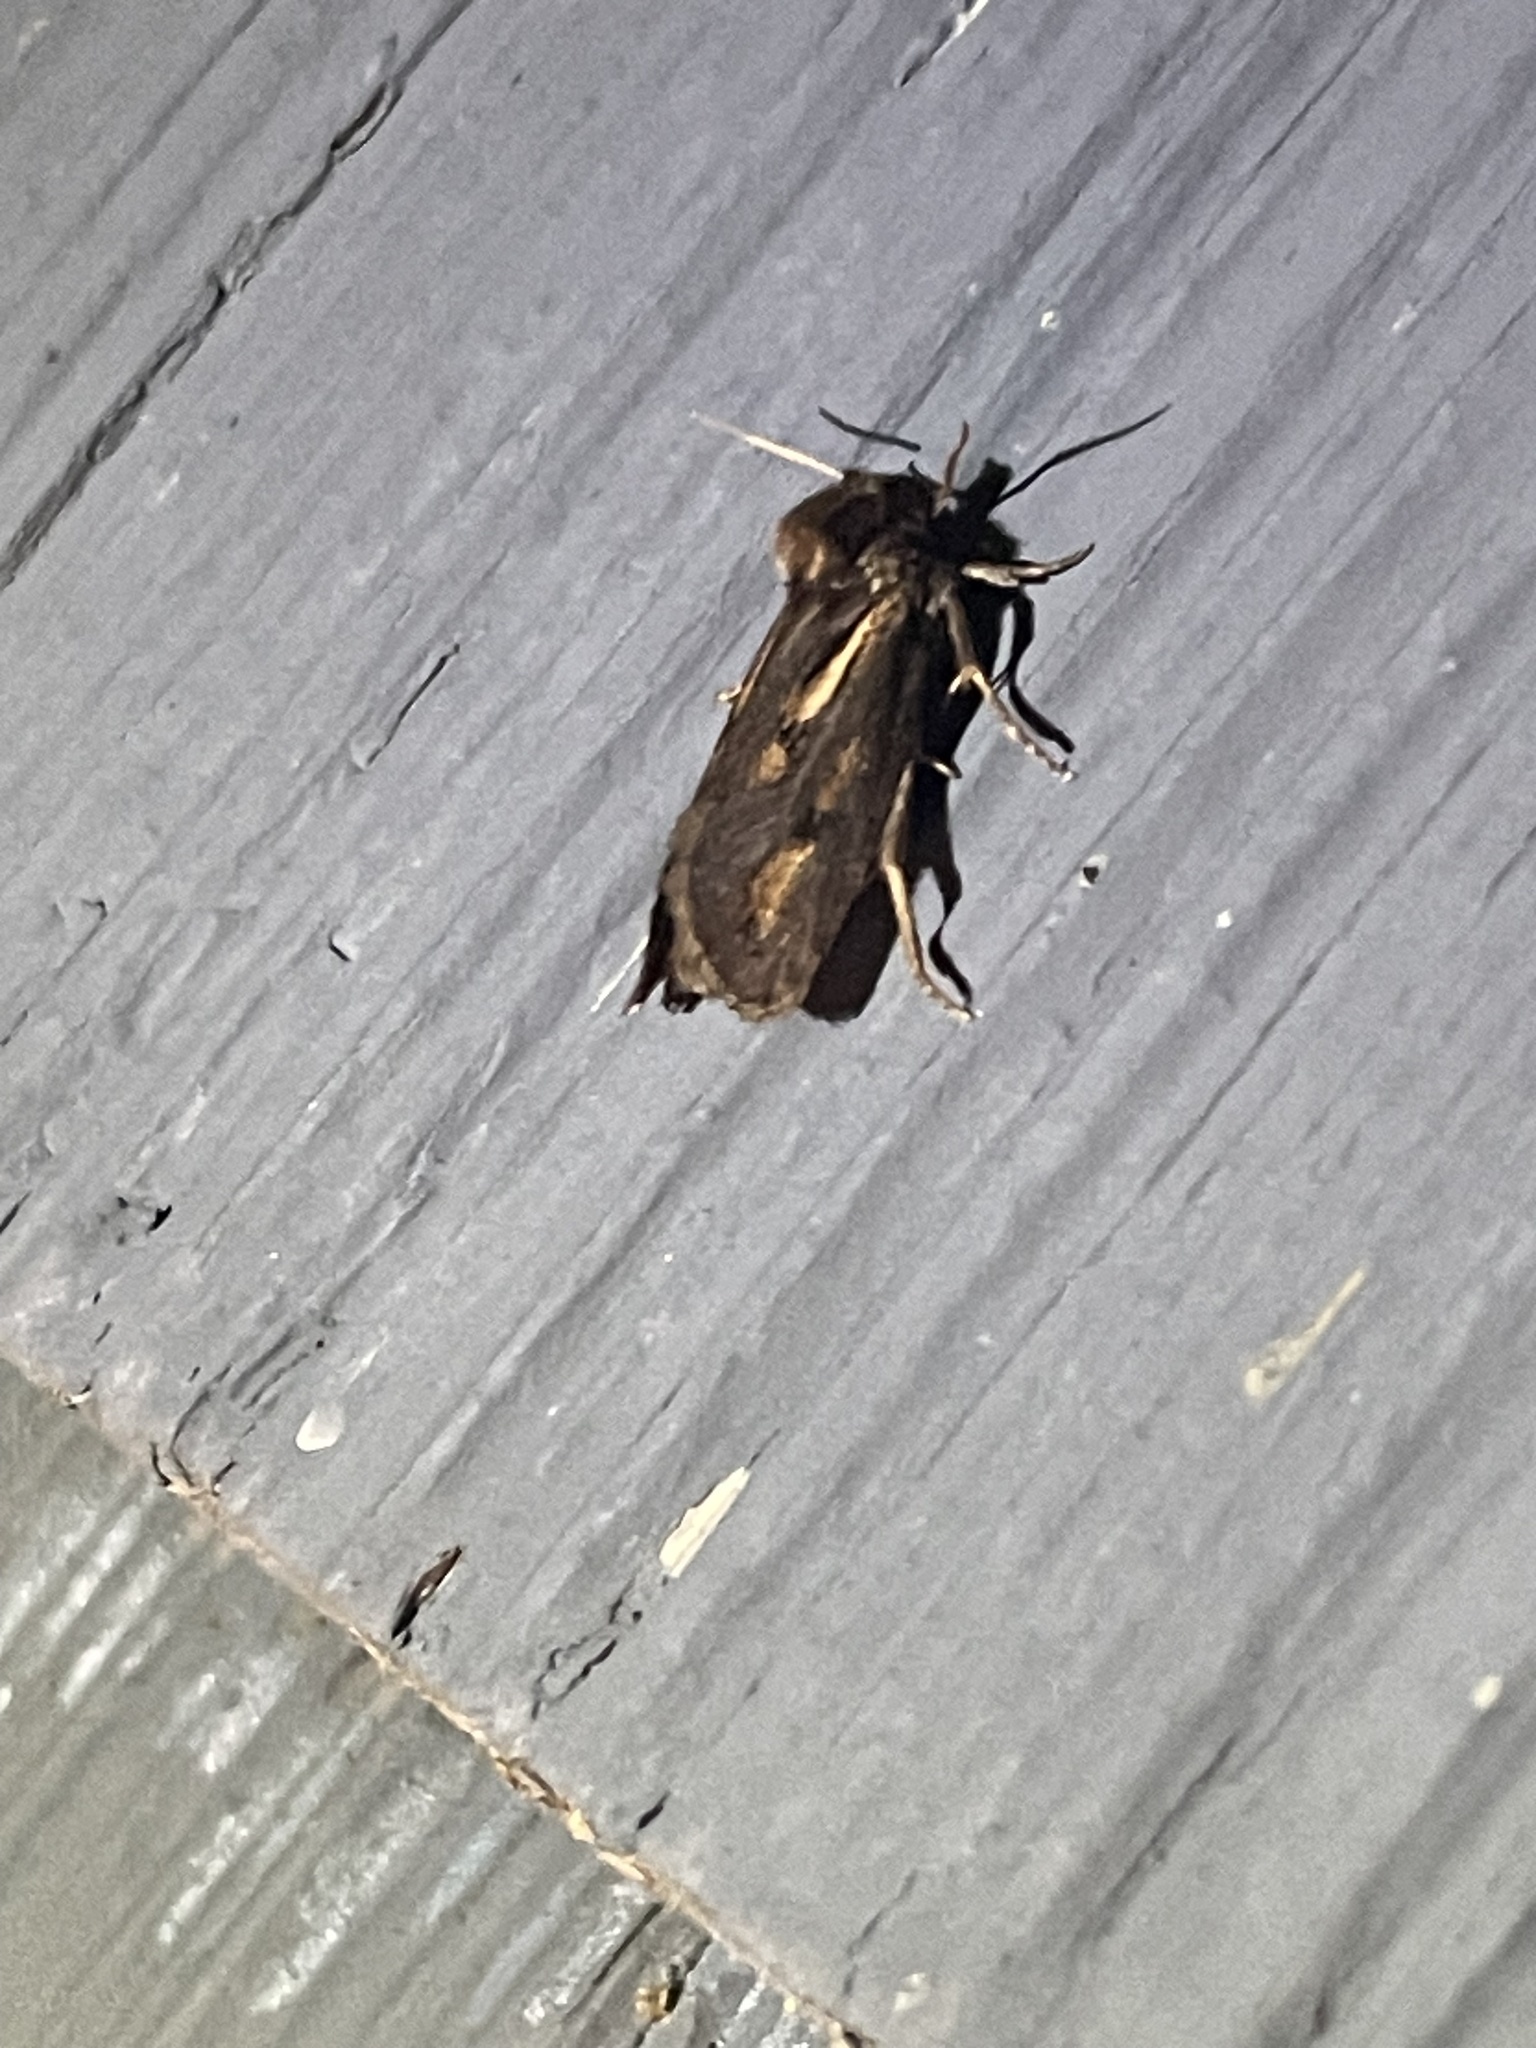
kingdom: Animalia
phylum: Arthropoda
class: Insecta
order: Lepidoptera
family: Tineidae
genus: Acrolophus
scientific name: Acrolophus popeanella
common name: Clemens' grass tubeworm moth
